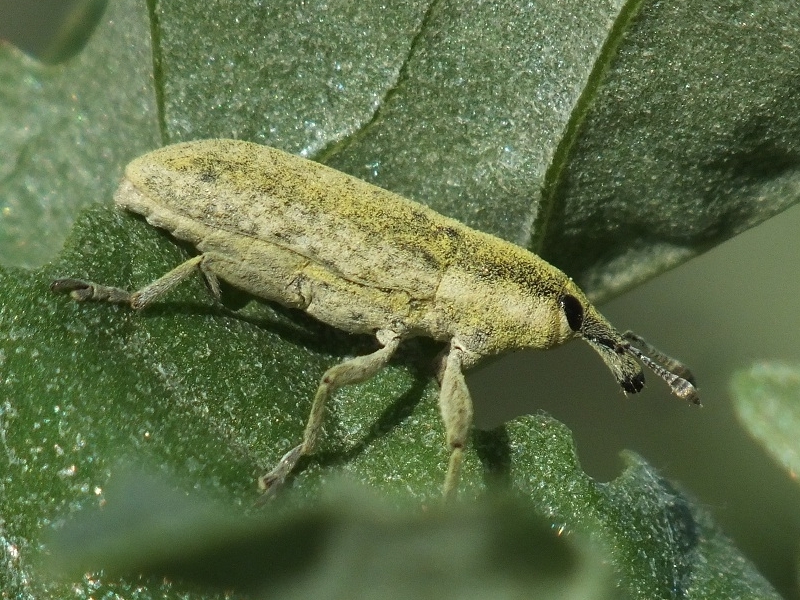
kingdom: Animalia
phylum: Arthropoda
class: Insecta
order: Coleoptera
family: Curculionidae
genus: Lixus
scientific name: Lixus rubicundus
